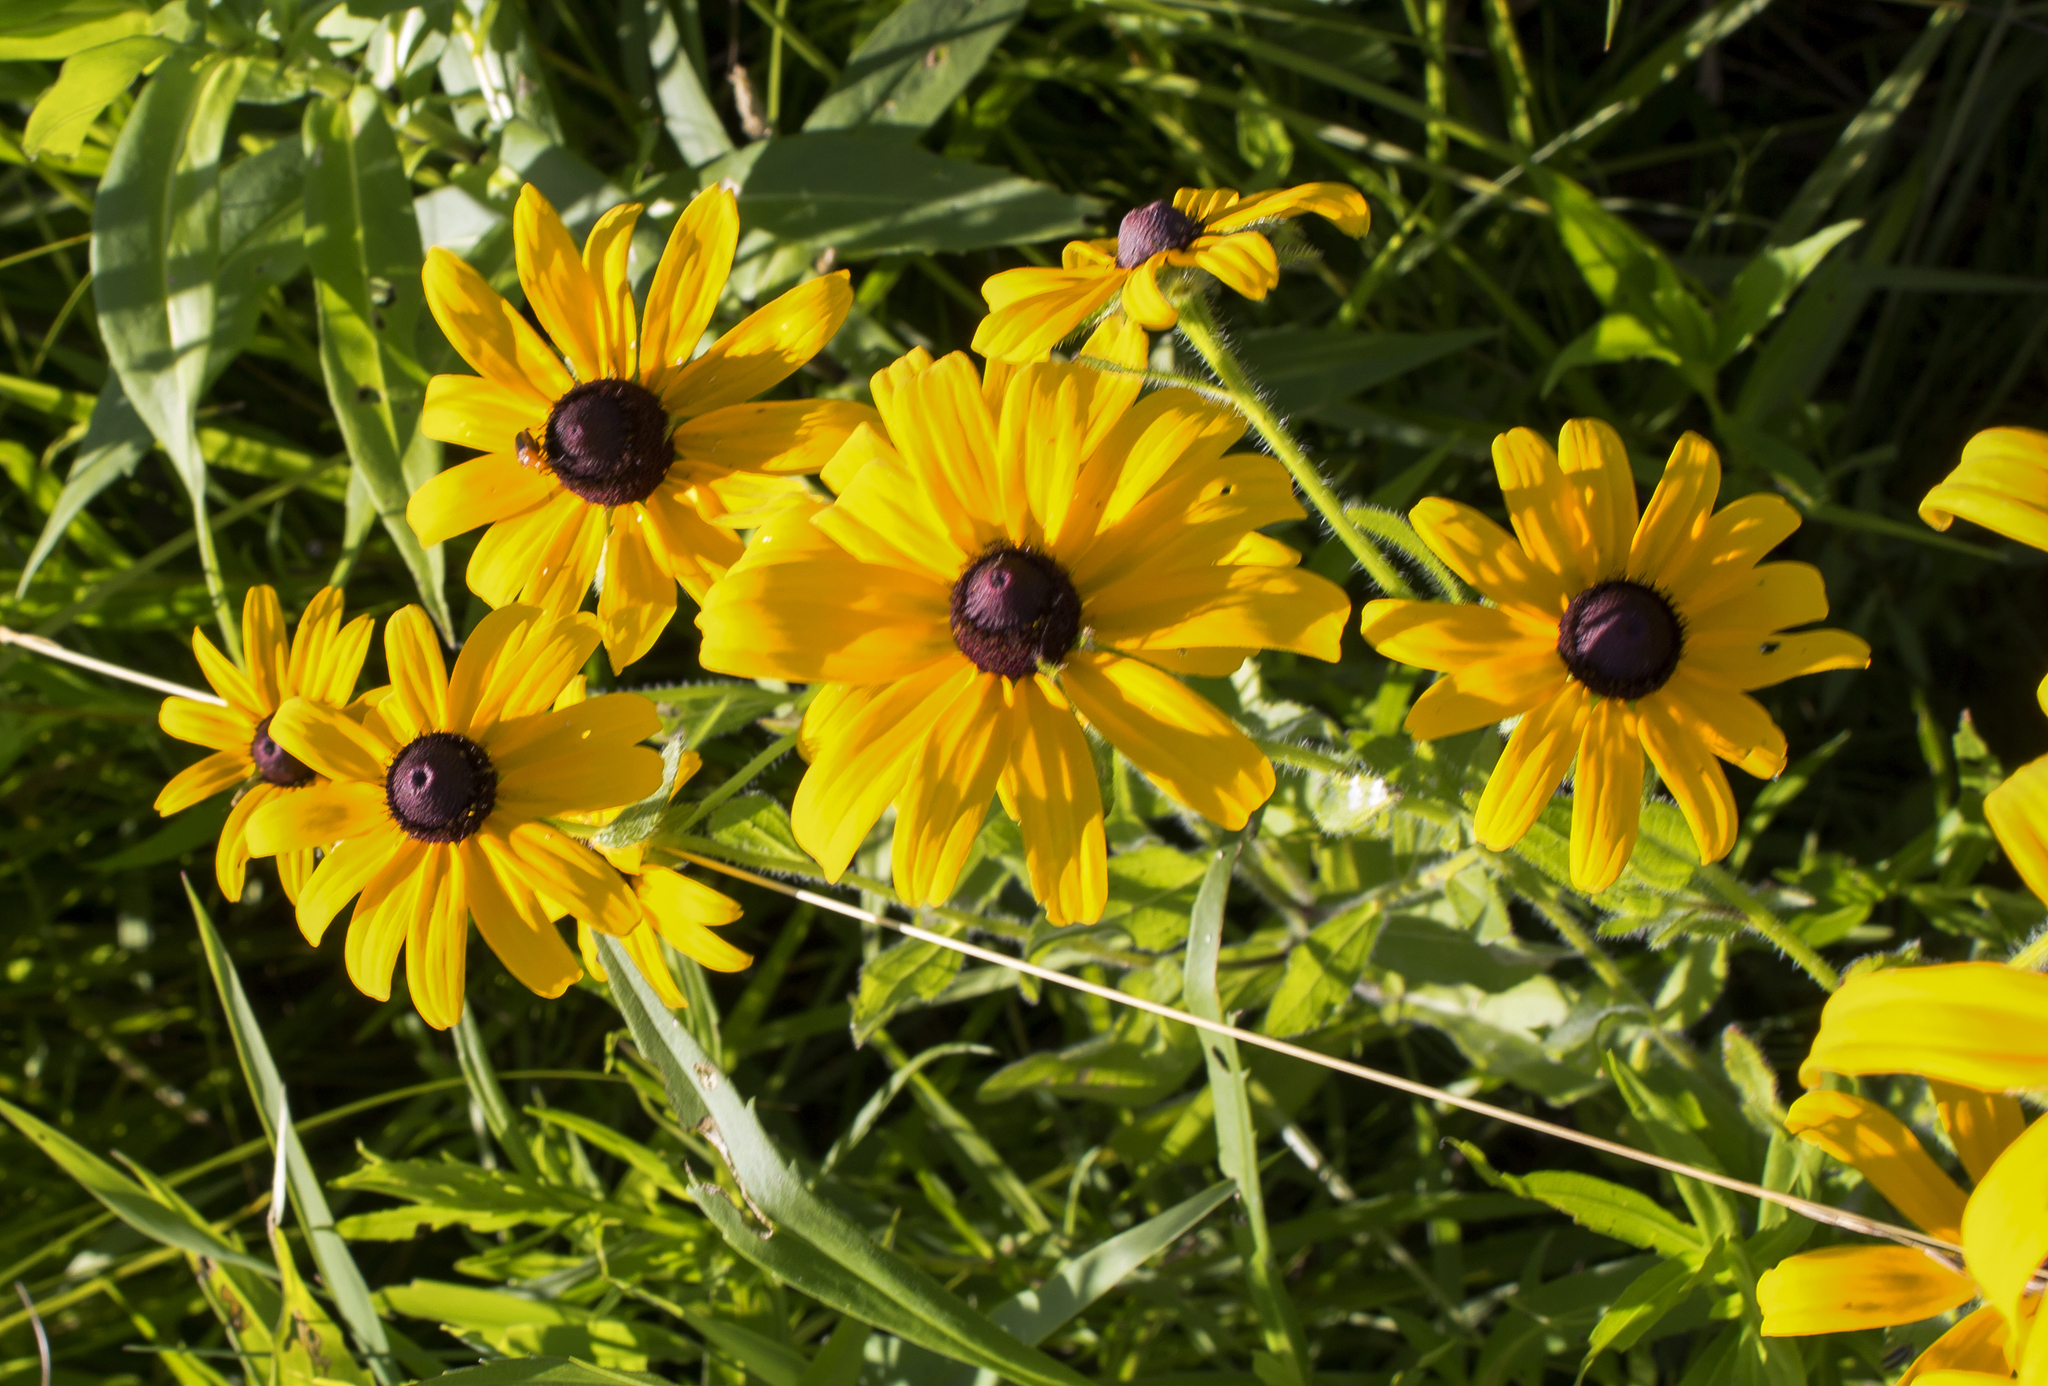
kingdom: Plantae
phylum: Tracheophyta
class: Magnoliopsida
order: Asterales
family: Asteraceae
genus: Rudbeckia
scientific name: Rudbeckia hirta
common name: Black-eyed-susan
